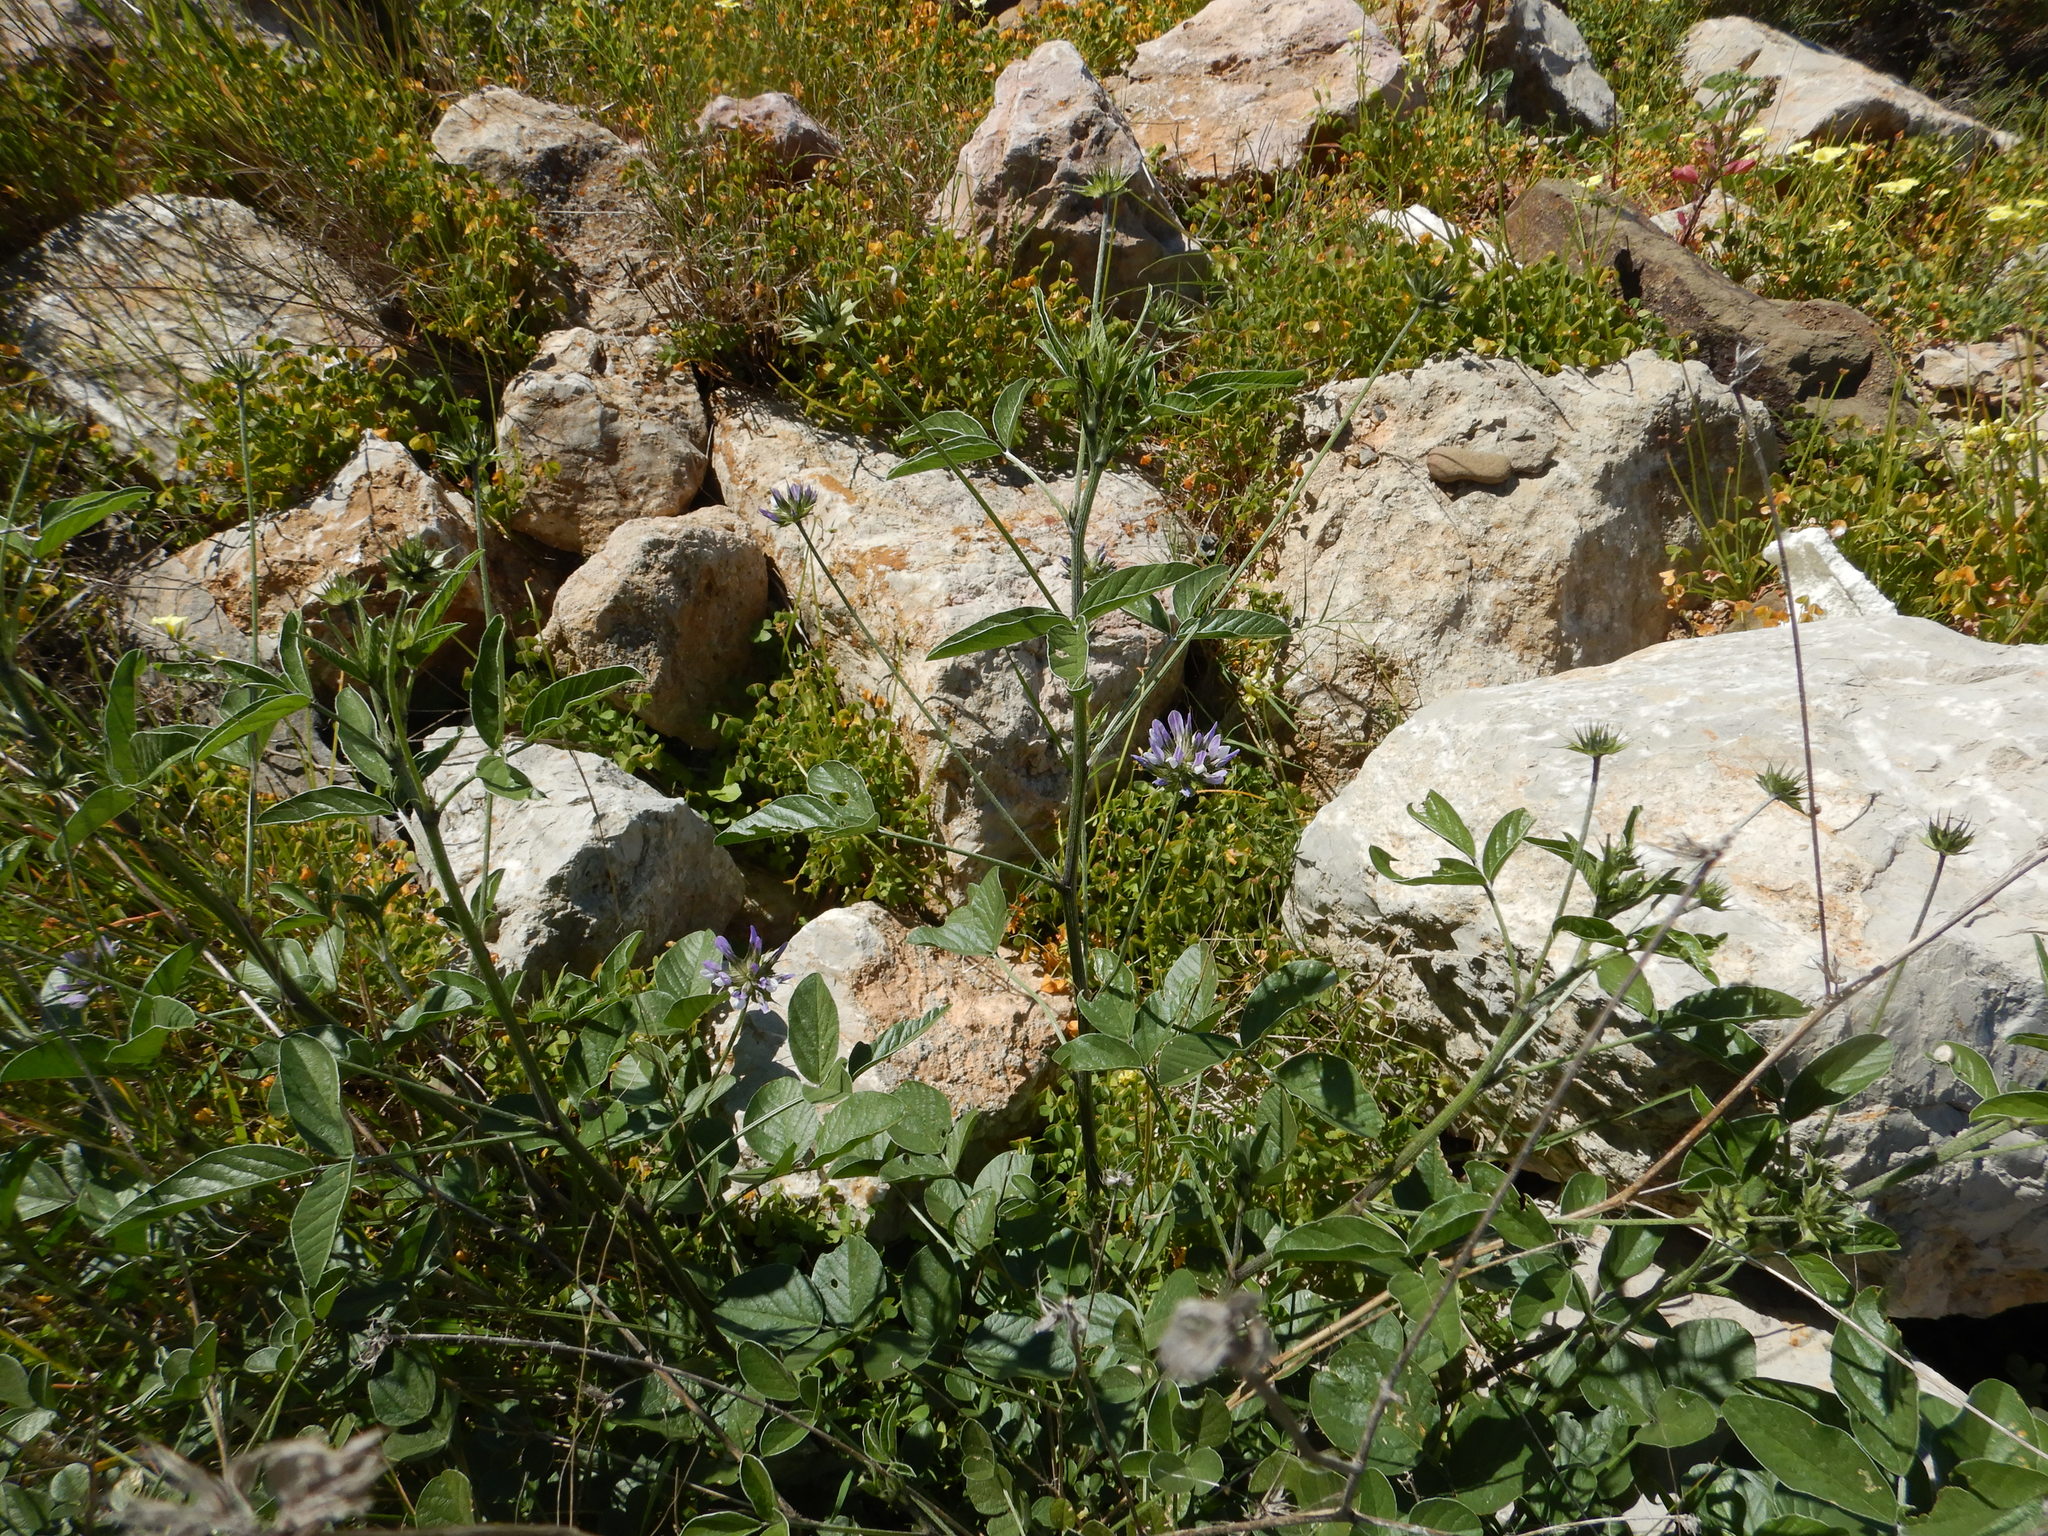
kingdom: Plantae
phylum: Tracheophyta
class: Magnoliopsida
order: Fabales
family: Fabaceae
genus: Bituminaria
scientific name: Bituminaria bituminosa
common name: Arabian pea
